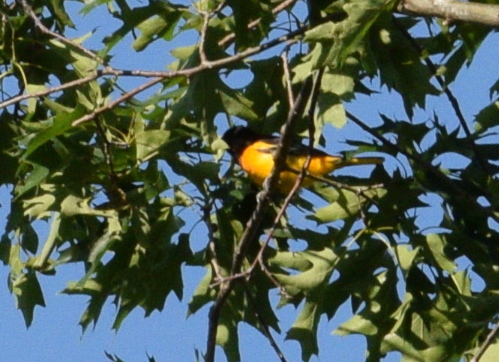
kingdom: Animalia
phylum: Chordata
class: Aves
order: Passeriformes
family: Icteridae
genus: Icterus
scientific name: Icterus galbula
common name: Baltimore oriole
